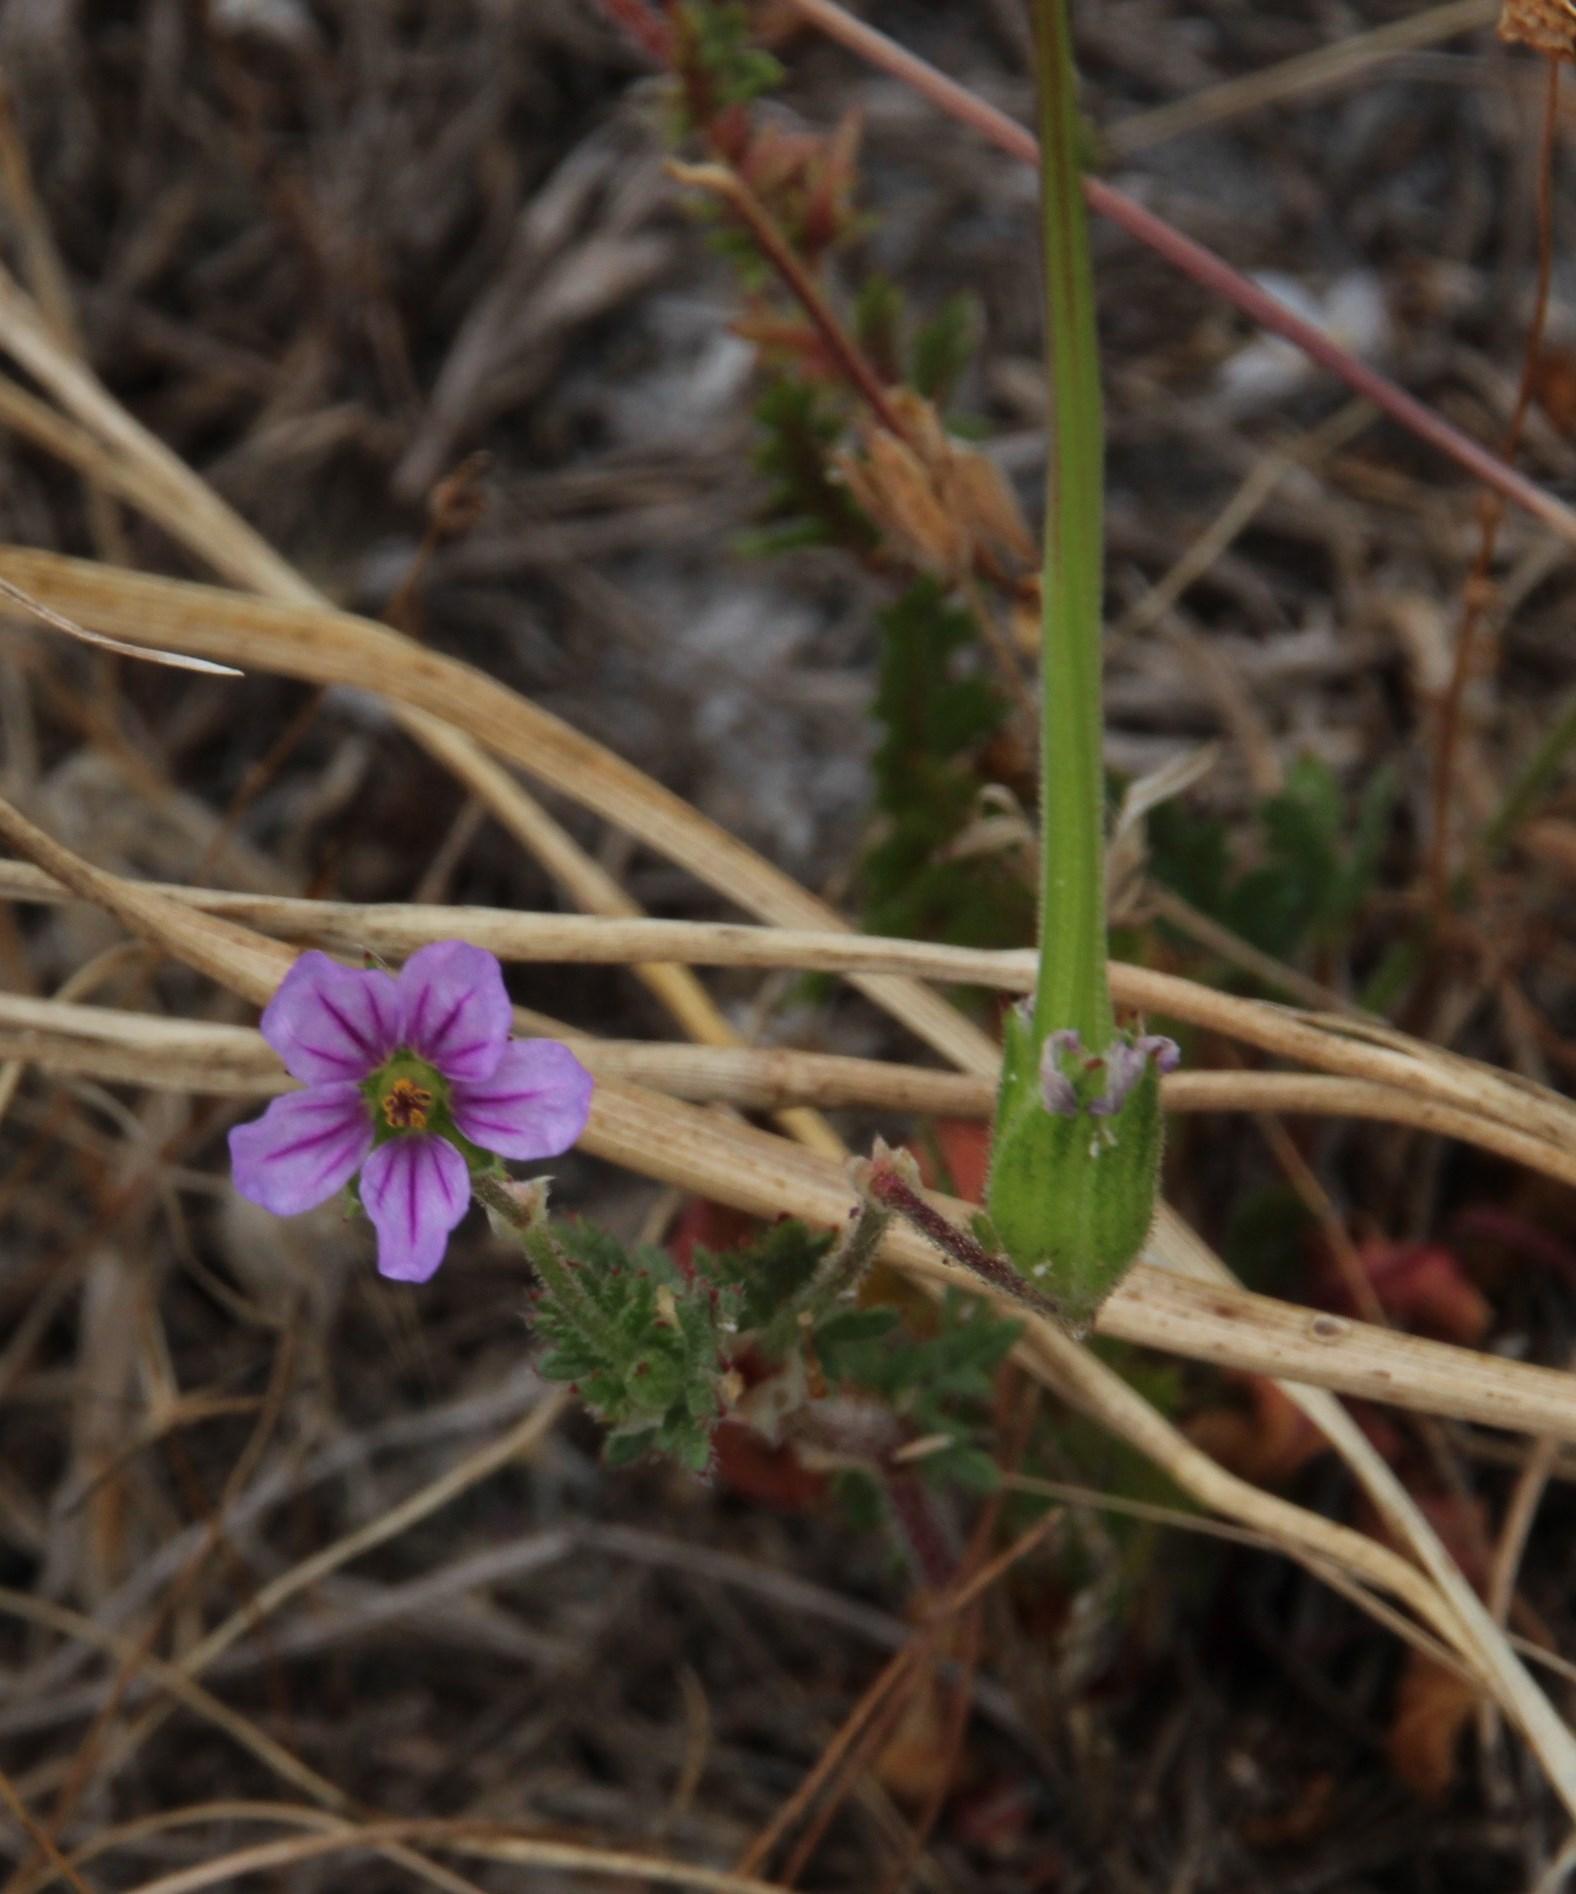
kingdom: Plantae
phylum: Tracheophyta
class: Magnoliopsida
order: Geraniales
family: Geraniaceae
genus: Erodium
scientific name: Erodium botrys
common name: Mediterranean stork's-bill
